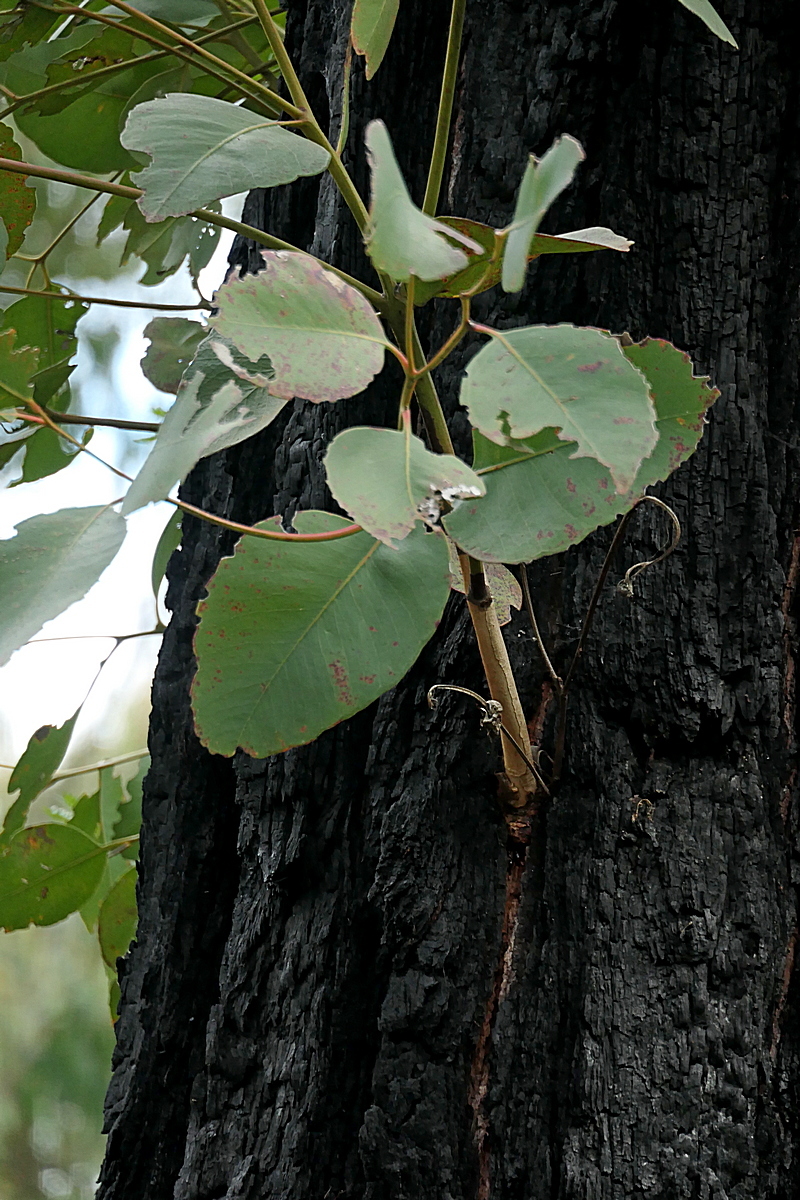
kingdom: Plantae
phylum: Tracheophyta
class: Magnoliopsida
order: Myrtales
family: Myrtaceae
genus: Eucalyptus
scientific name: Eucalyptus fibrosa
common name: Red ironbark
